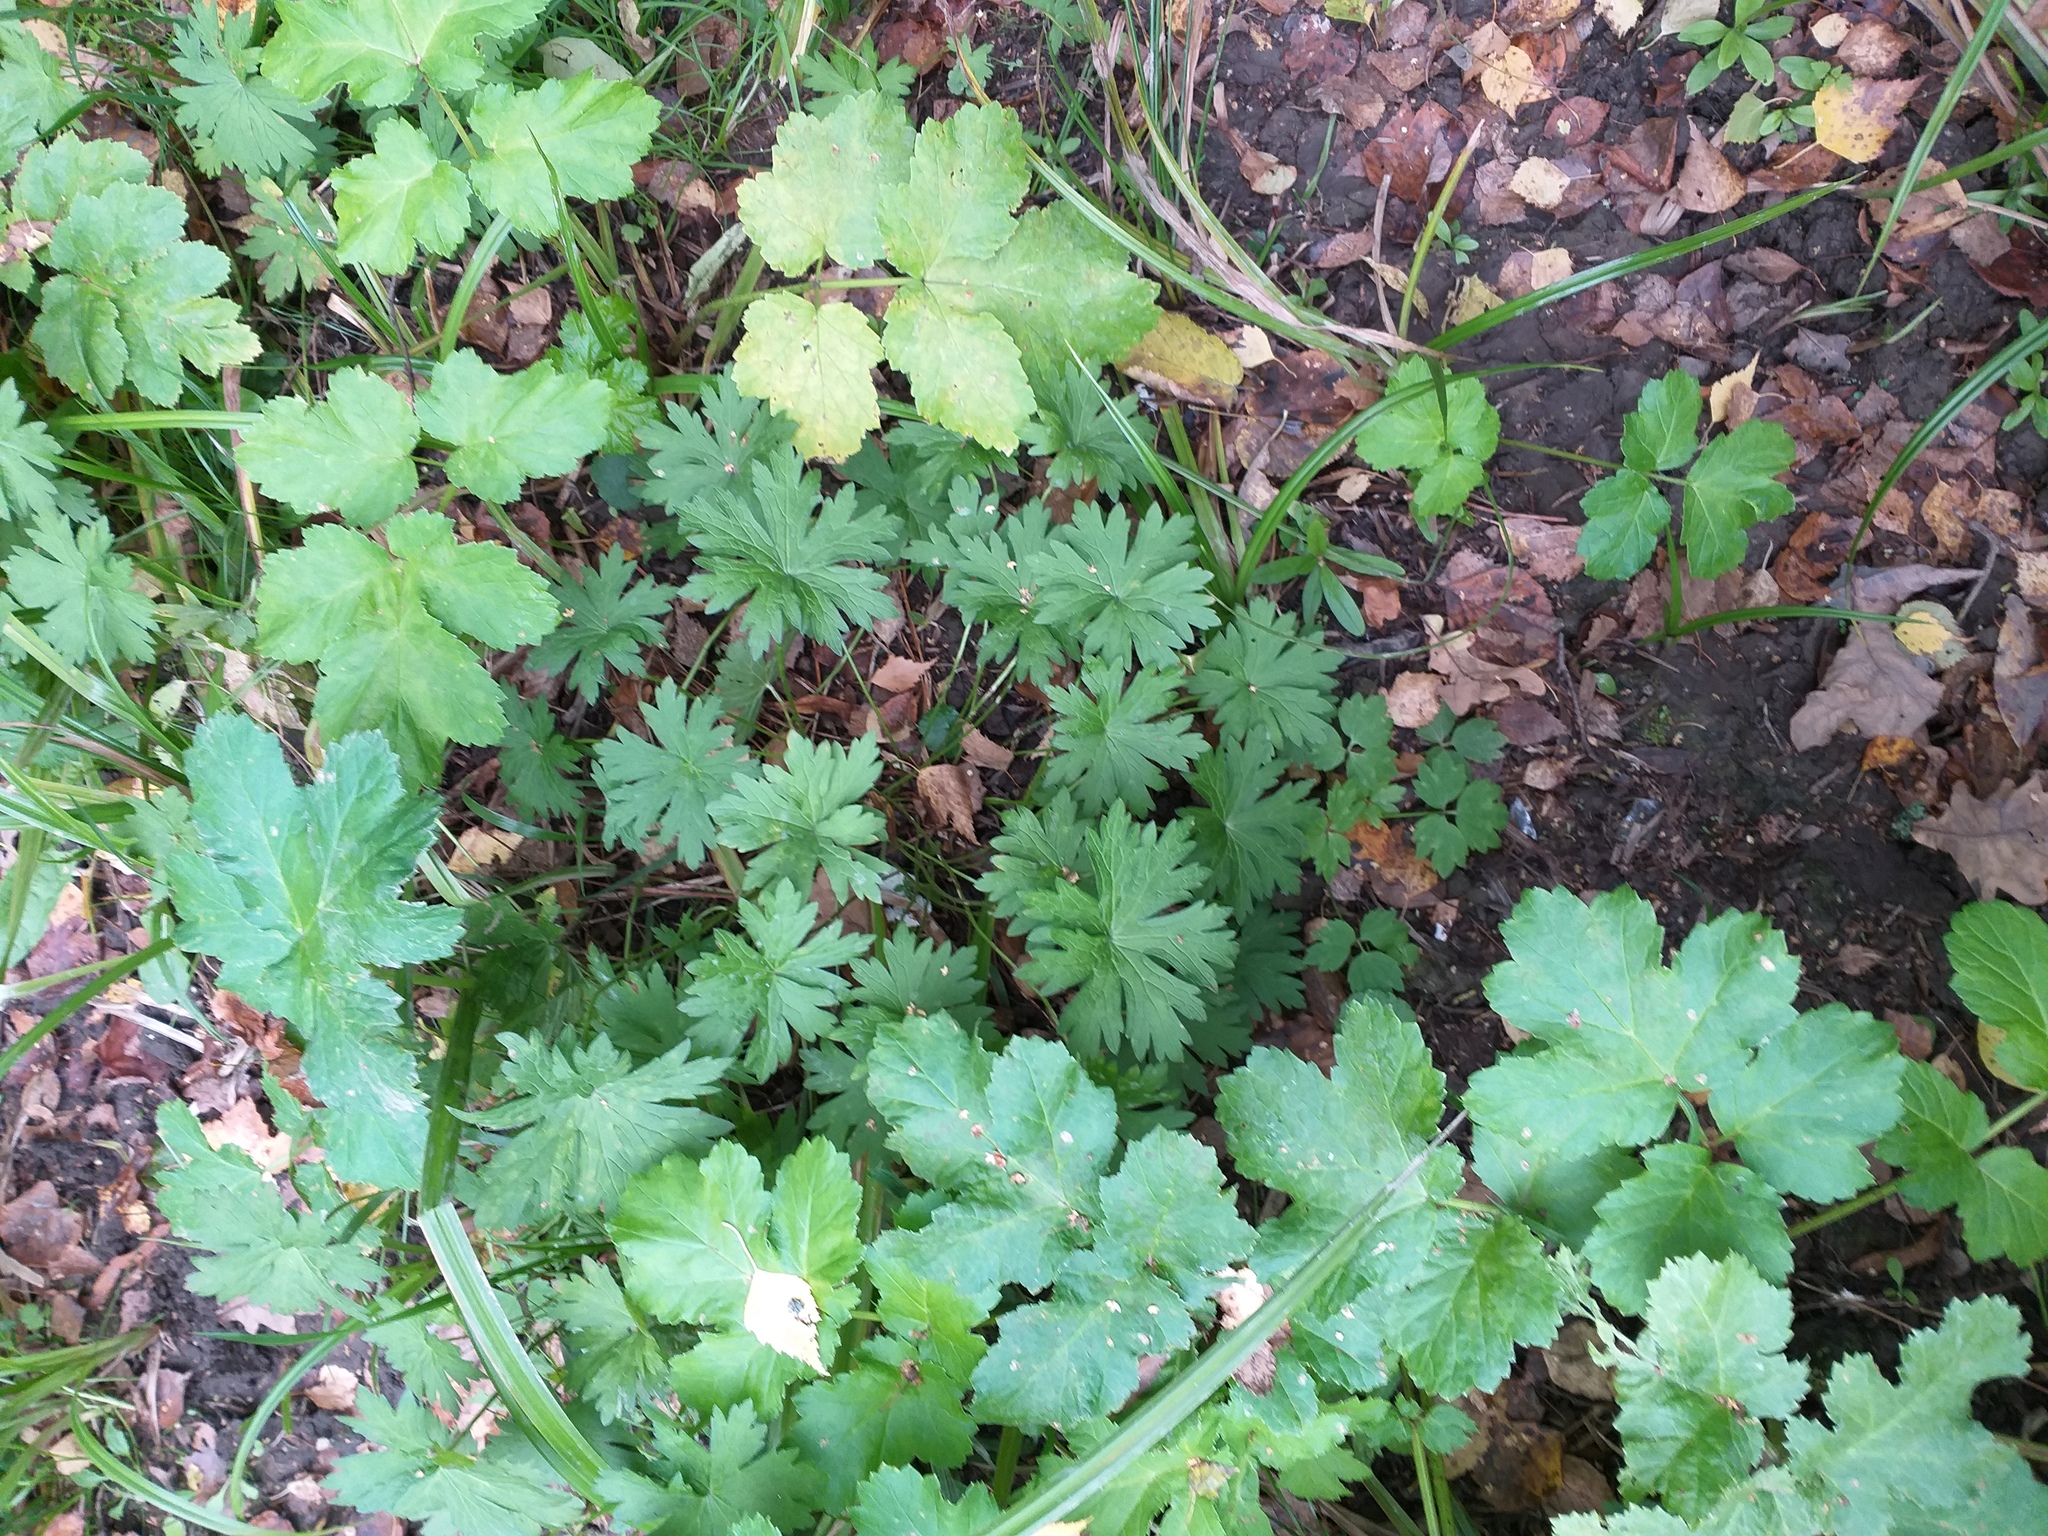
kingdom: Plantae
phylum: Tracheophyta
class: Magnoliopsida
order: Geraniales
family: Geraniaceae
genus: Geranium
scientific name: Geranium palustre
